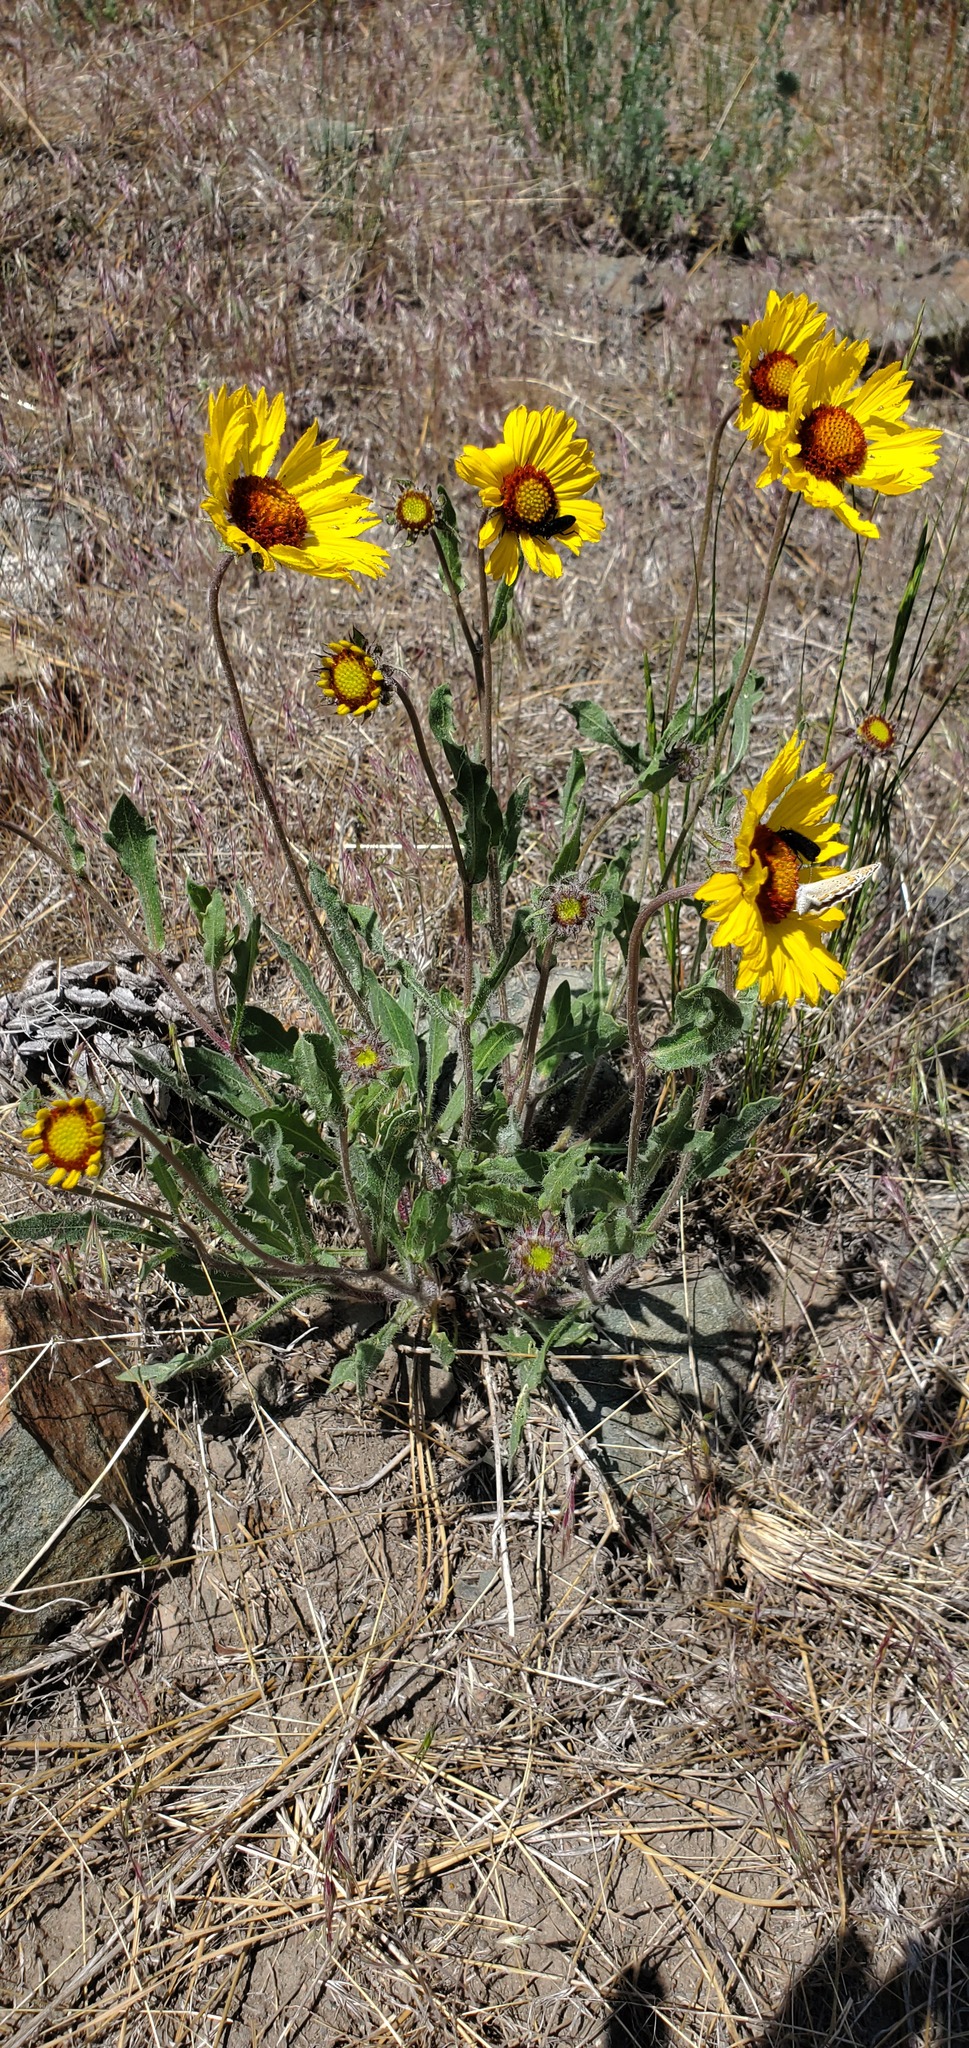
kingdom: Plantae
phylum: Tracheophyta
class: Magnoliopsida
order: Asterales
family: Asteraceae
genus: Gaillardia
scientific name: Gaillardia aristata
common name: Blanket-flower
